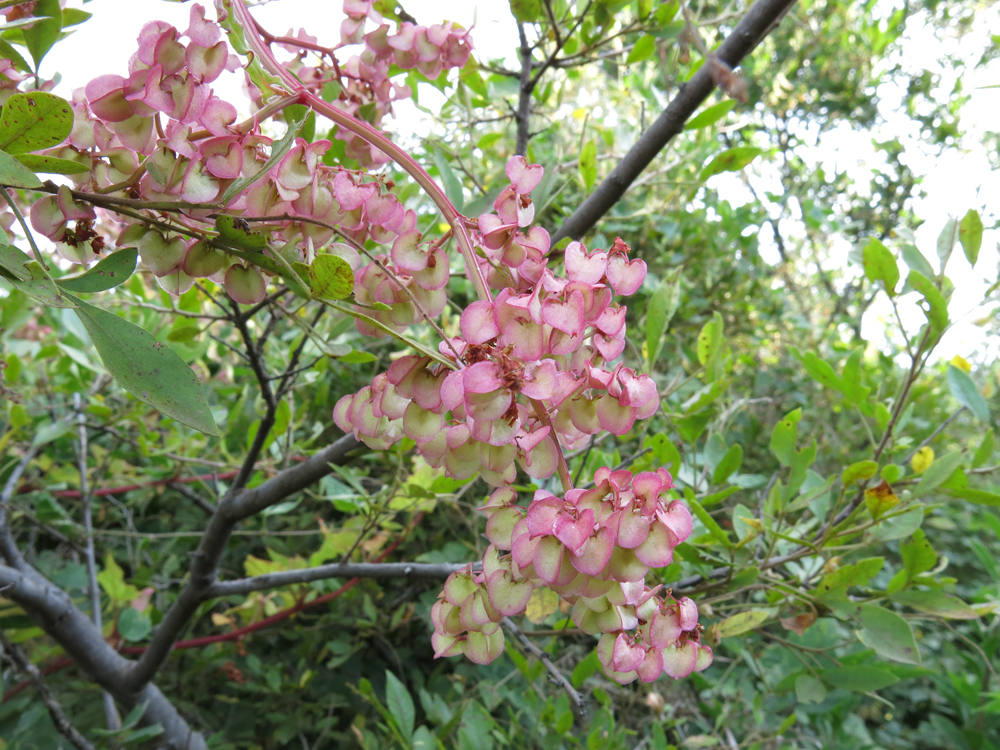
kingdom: Plantae
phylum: Tracheophyta
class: Magnoliopsida
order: Caryophyllales
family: Polygonaceae
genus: Rumex
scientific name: Rumex sagittatus
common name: Climbing dock
